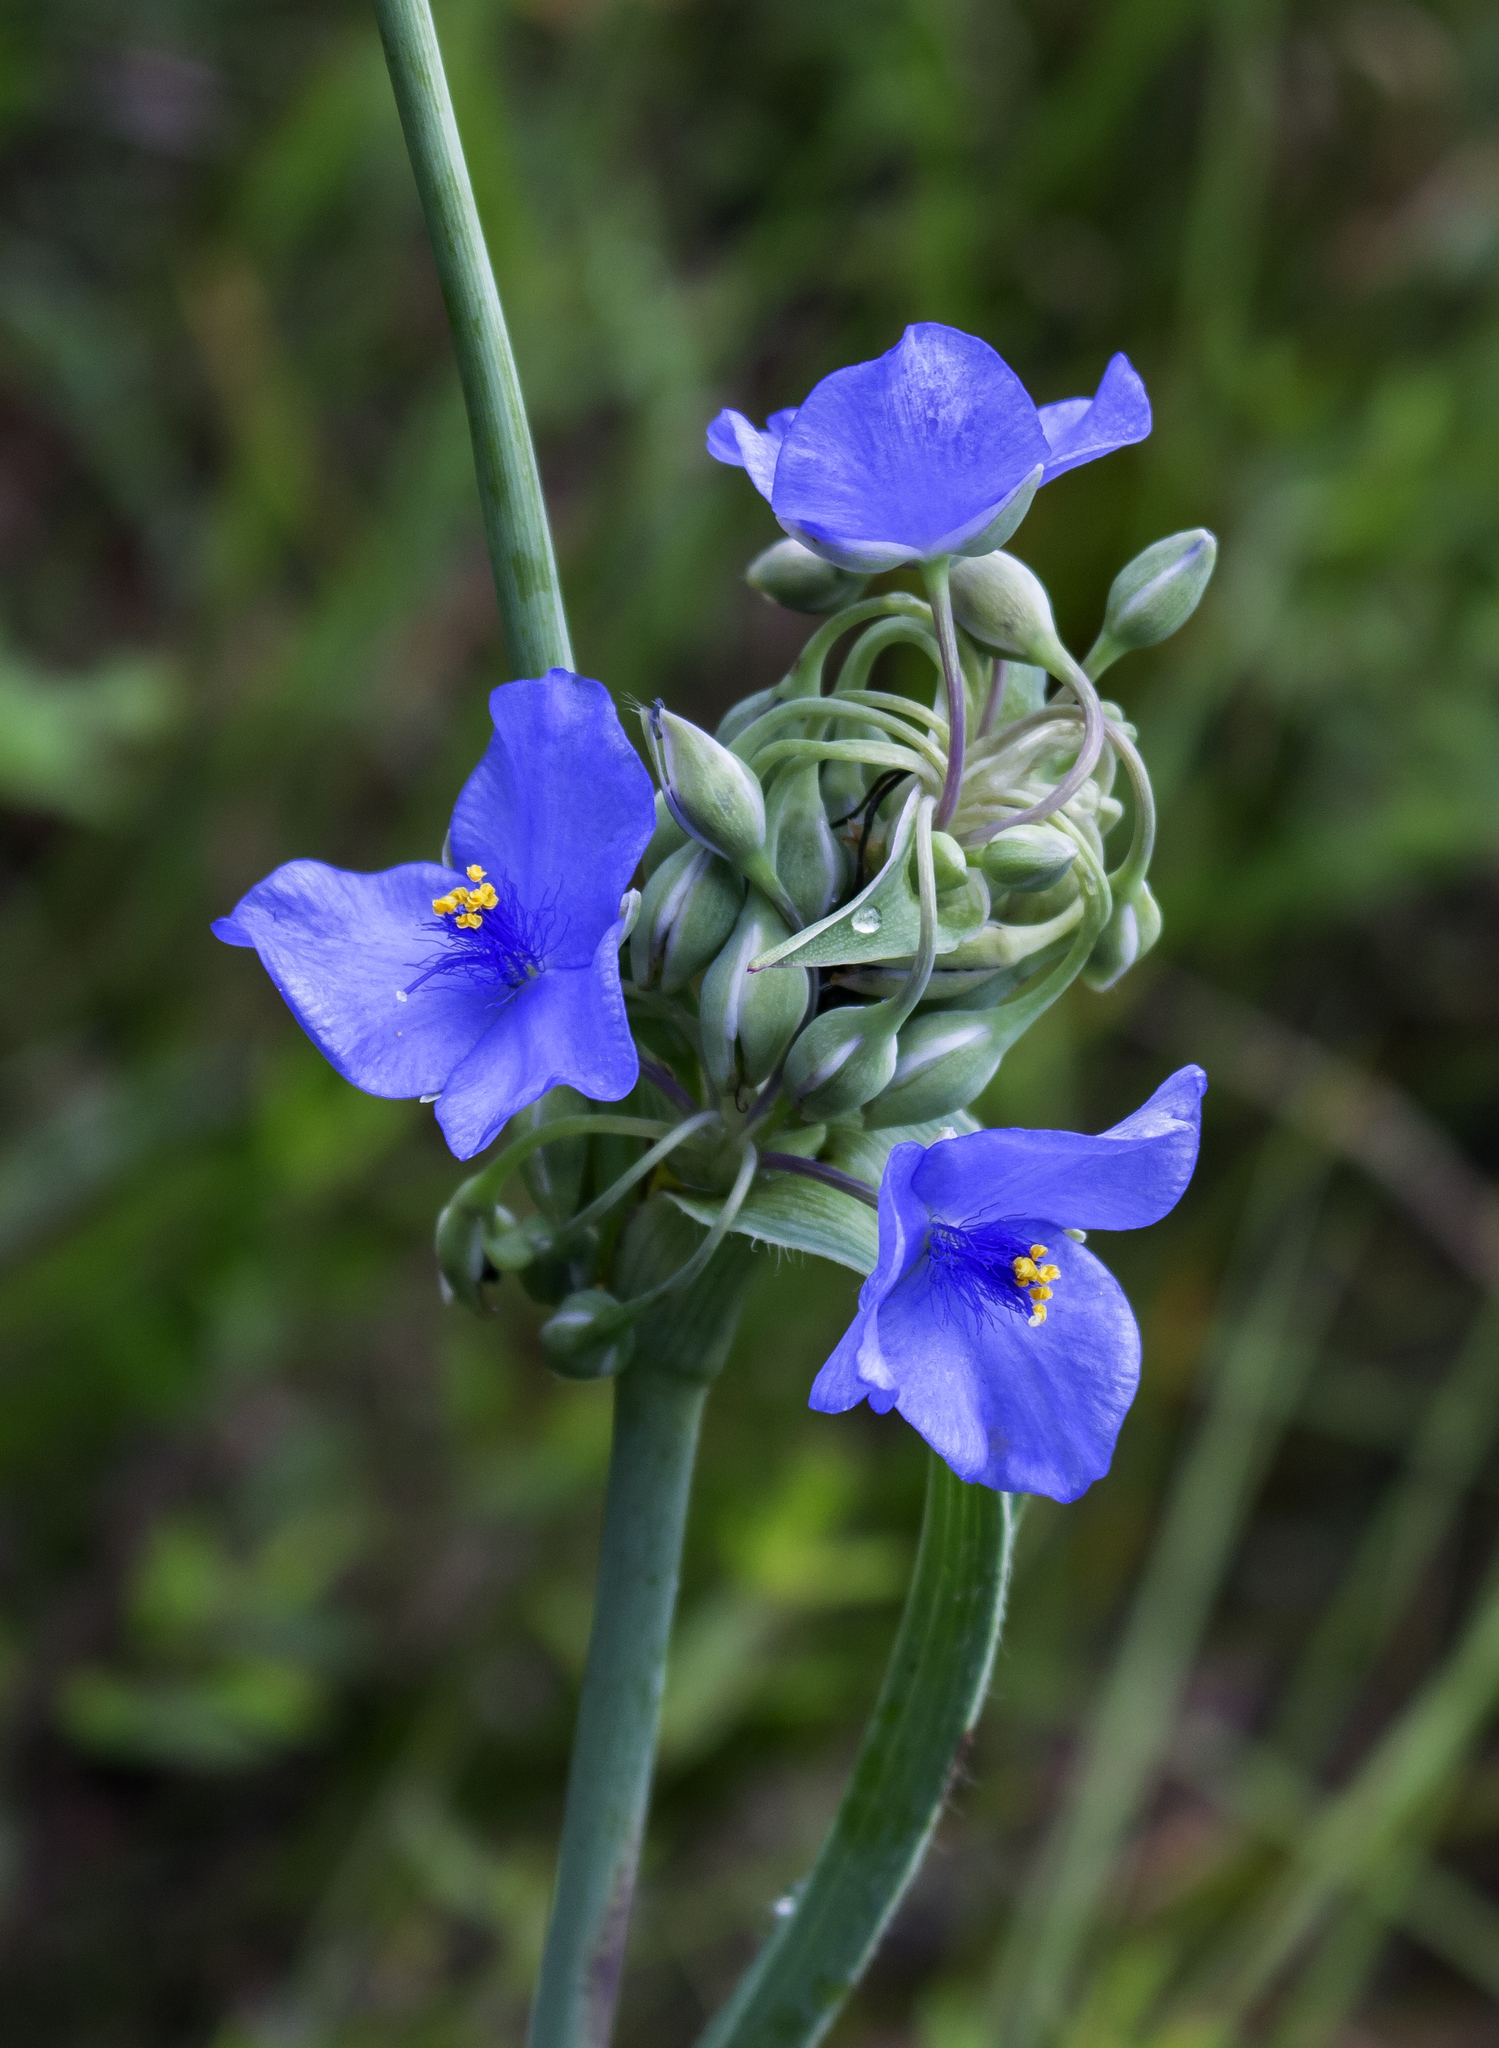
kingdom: Plantae
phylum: Tracheophyta
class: Liliopsida
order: Commelinales
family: Commelinaceae
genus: Tradescantia
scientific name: Tradescantia ohiensis
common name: Ohio spiderwort
